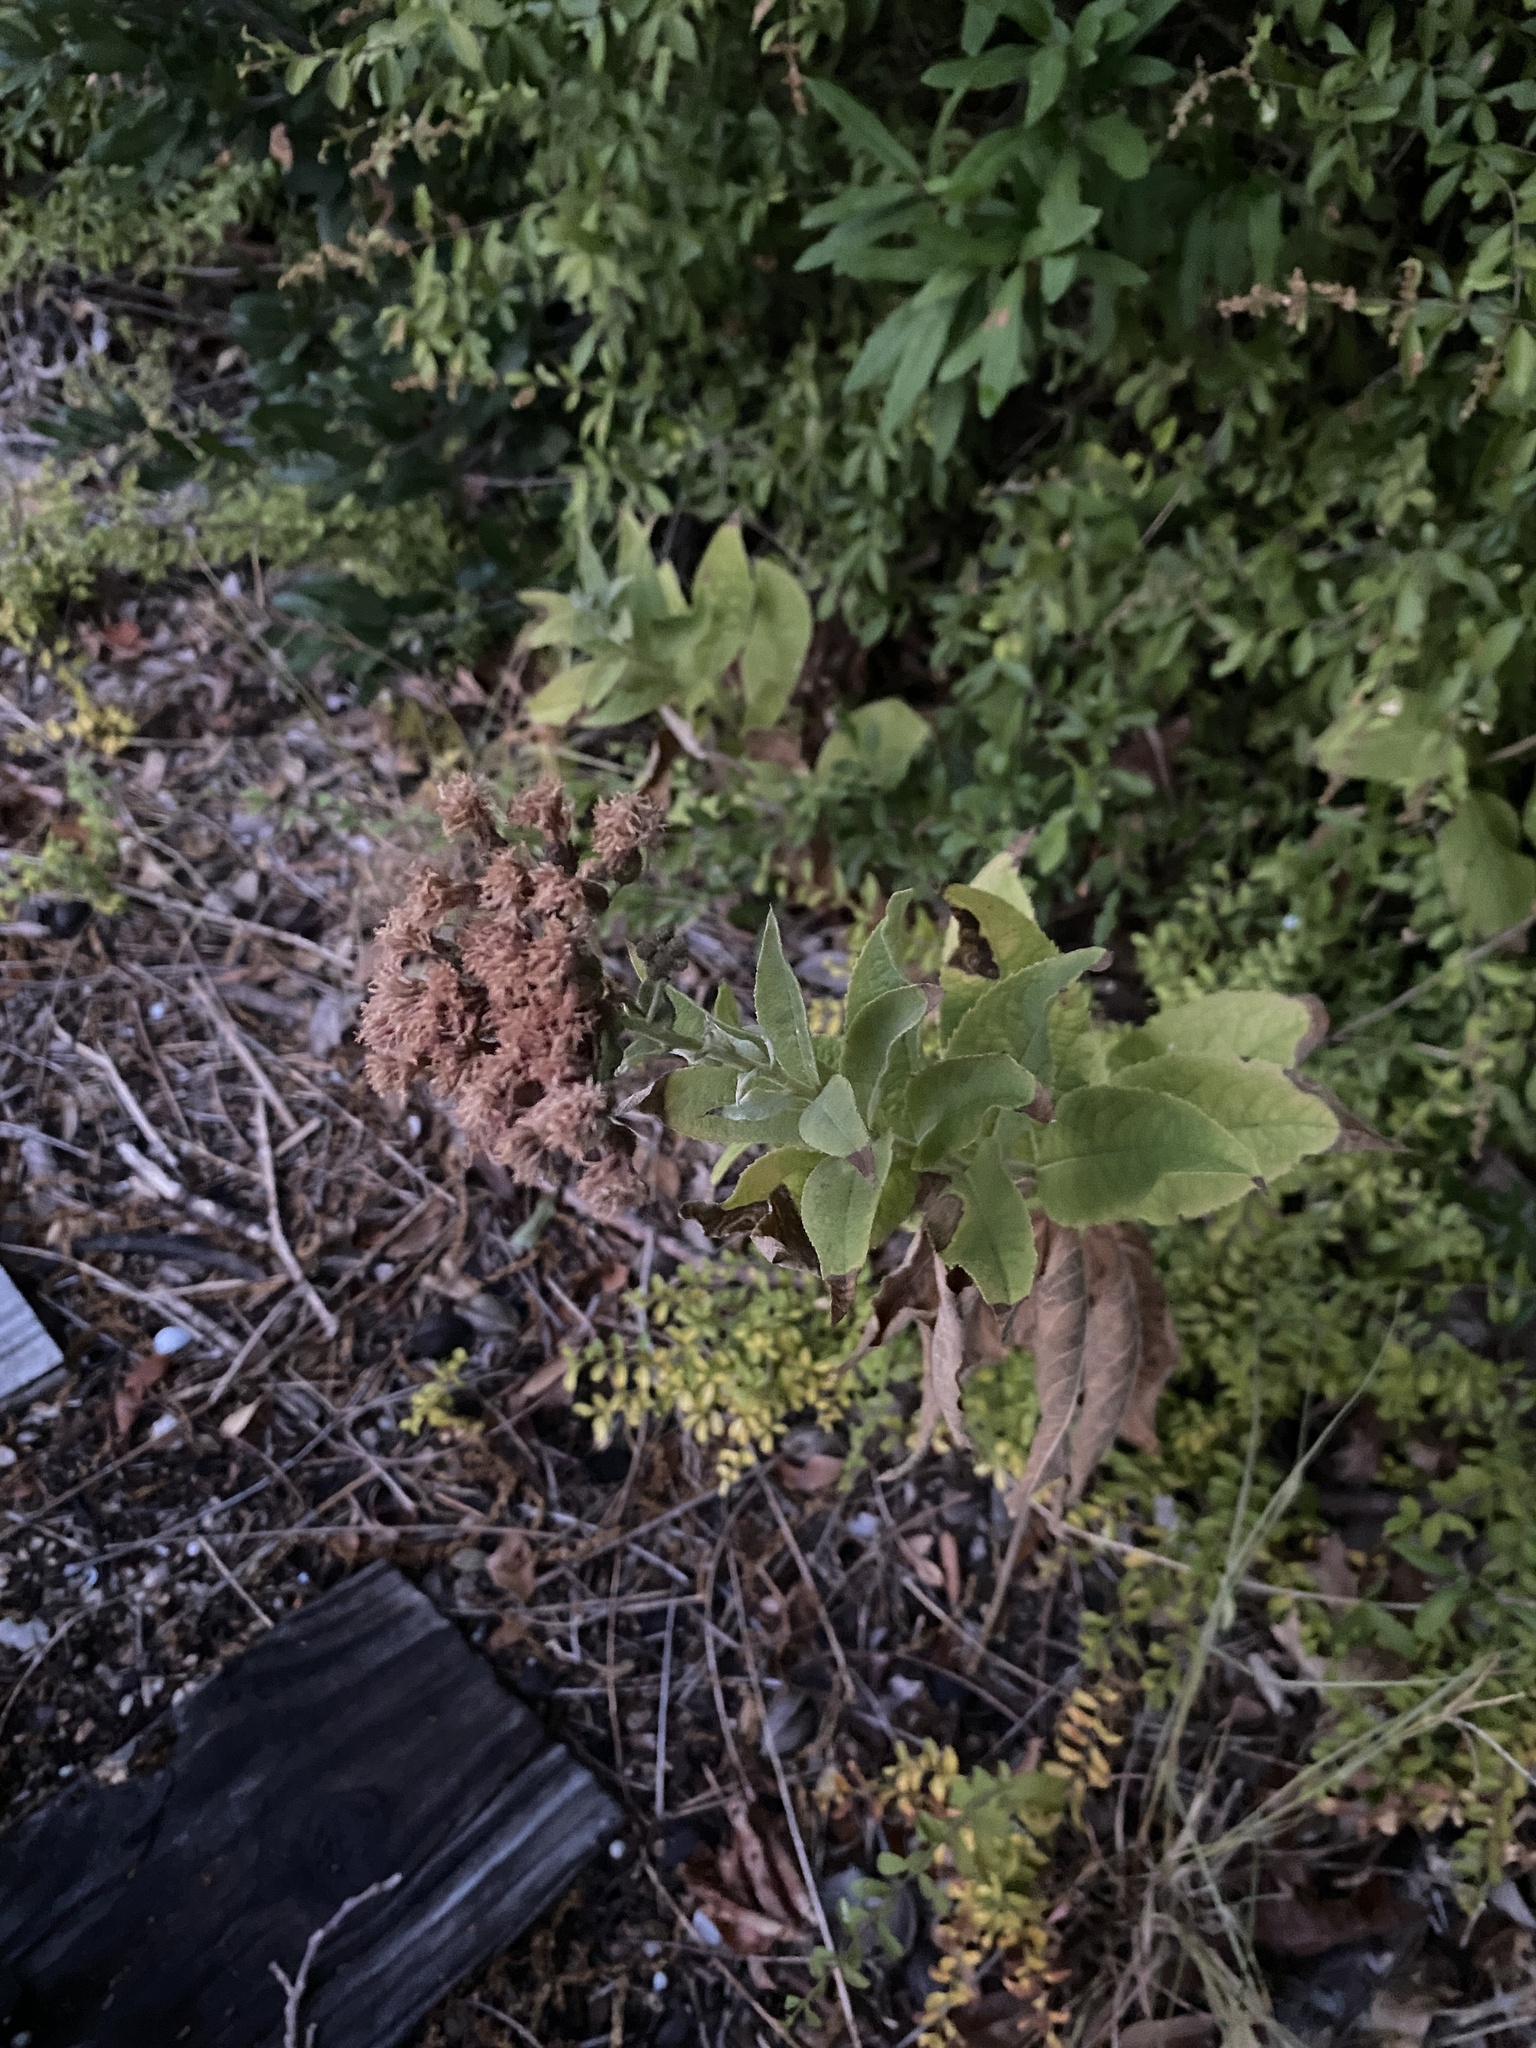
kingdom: Plantae
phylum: Tracheophyta
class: Magnoliopsida
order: Asterales
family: Asteraceae
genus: Vernonia
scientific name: Vernonia baldwinii
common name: Western ironweed
